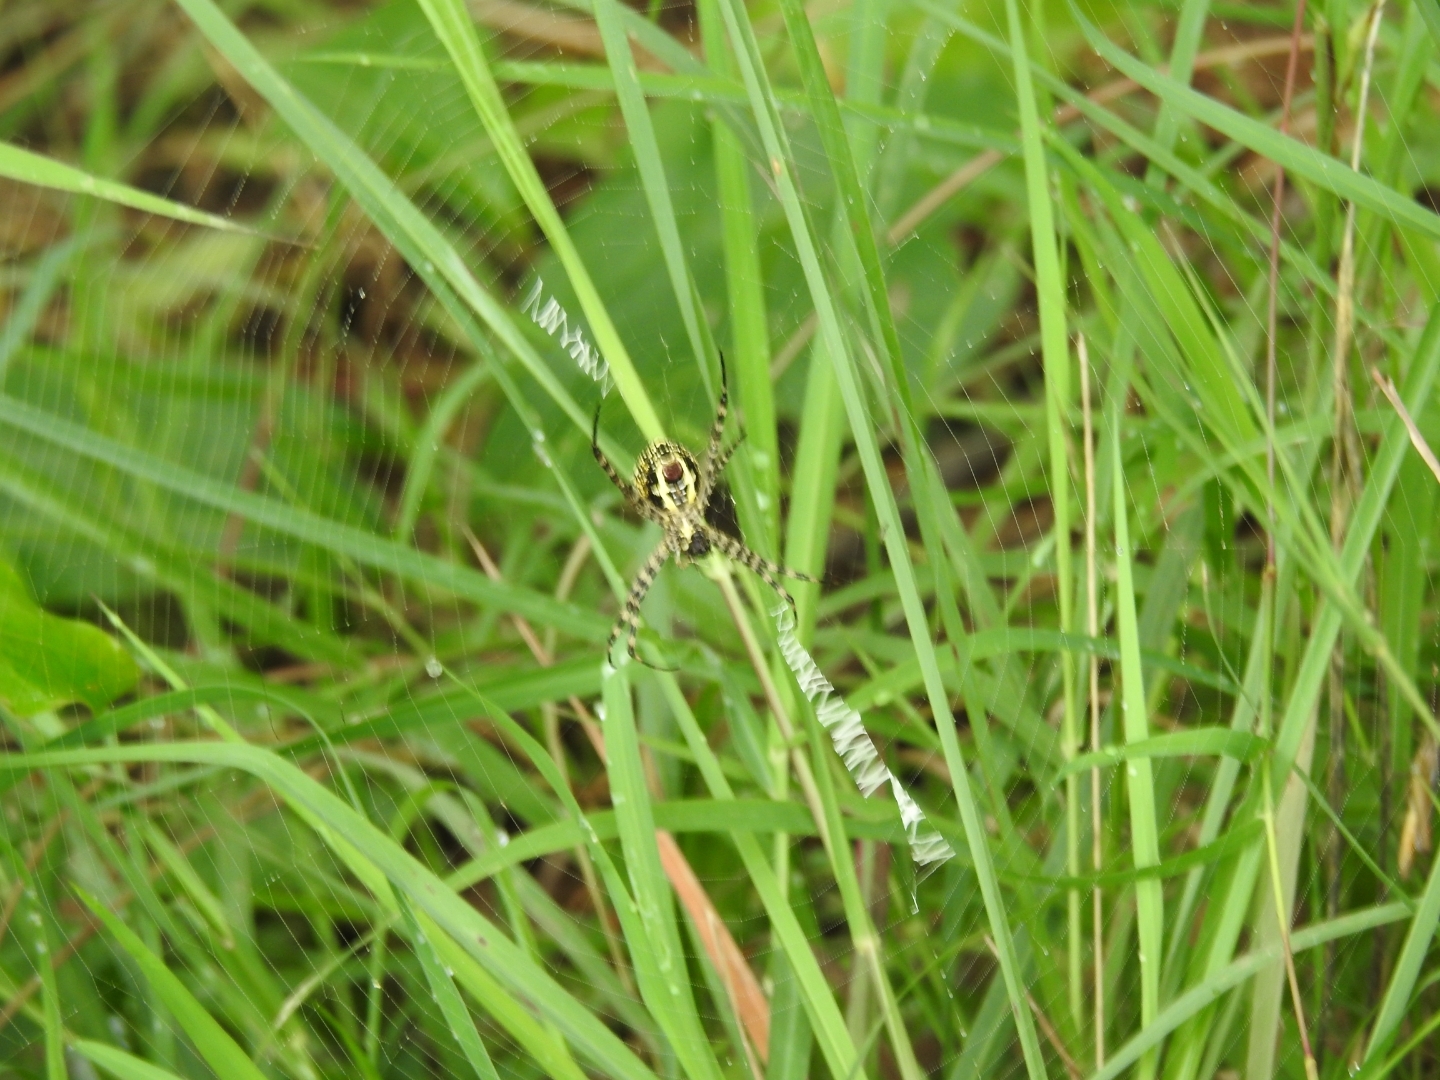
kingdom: Animalia
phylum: Arthropoda
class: Arachnida
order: Araneae
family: Araneidae
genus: Argiope
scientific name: Argiope aemula
